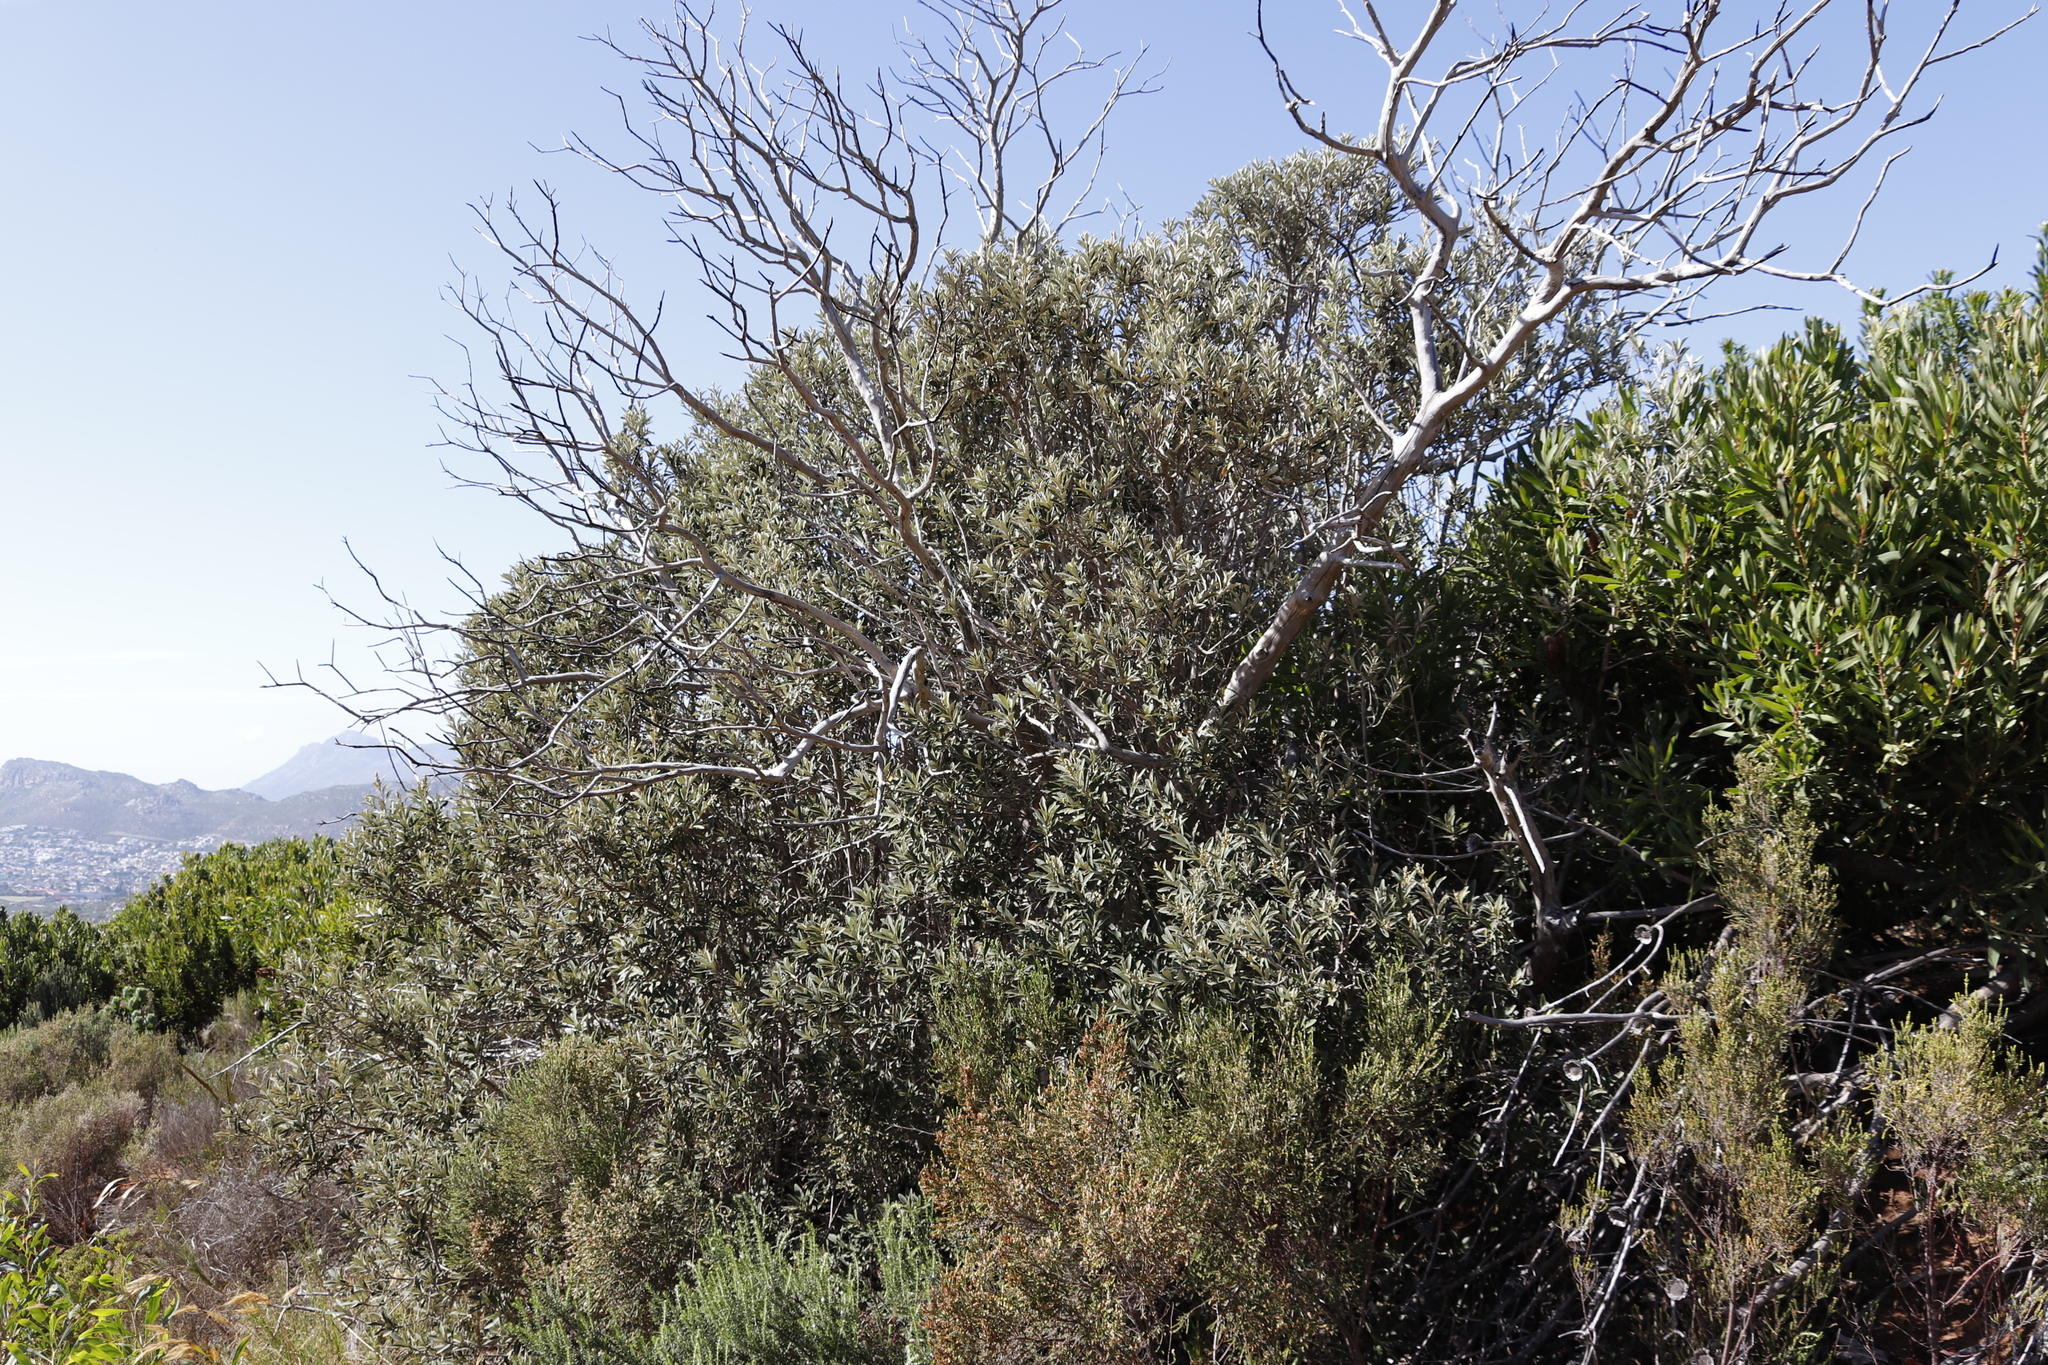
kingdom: Plantae
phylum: Tracheophyta
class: Magnoliopsida
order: Asterales
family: Asteraceae
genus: Tarchonanthus
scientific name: Tarchonanthus littoralis
